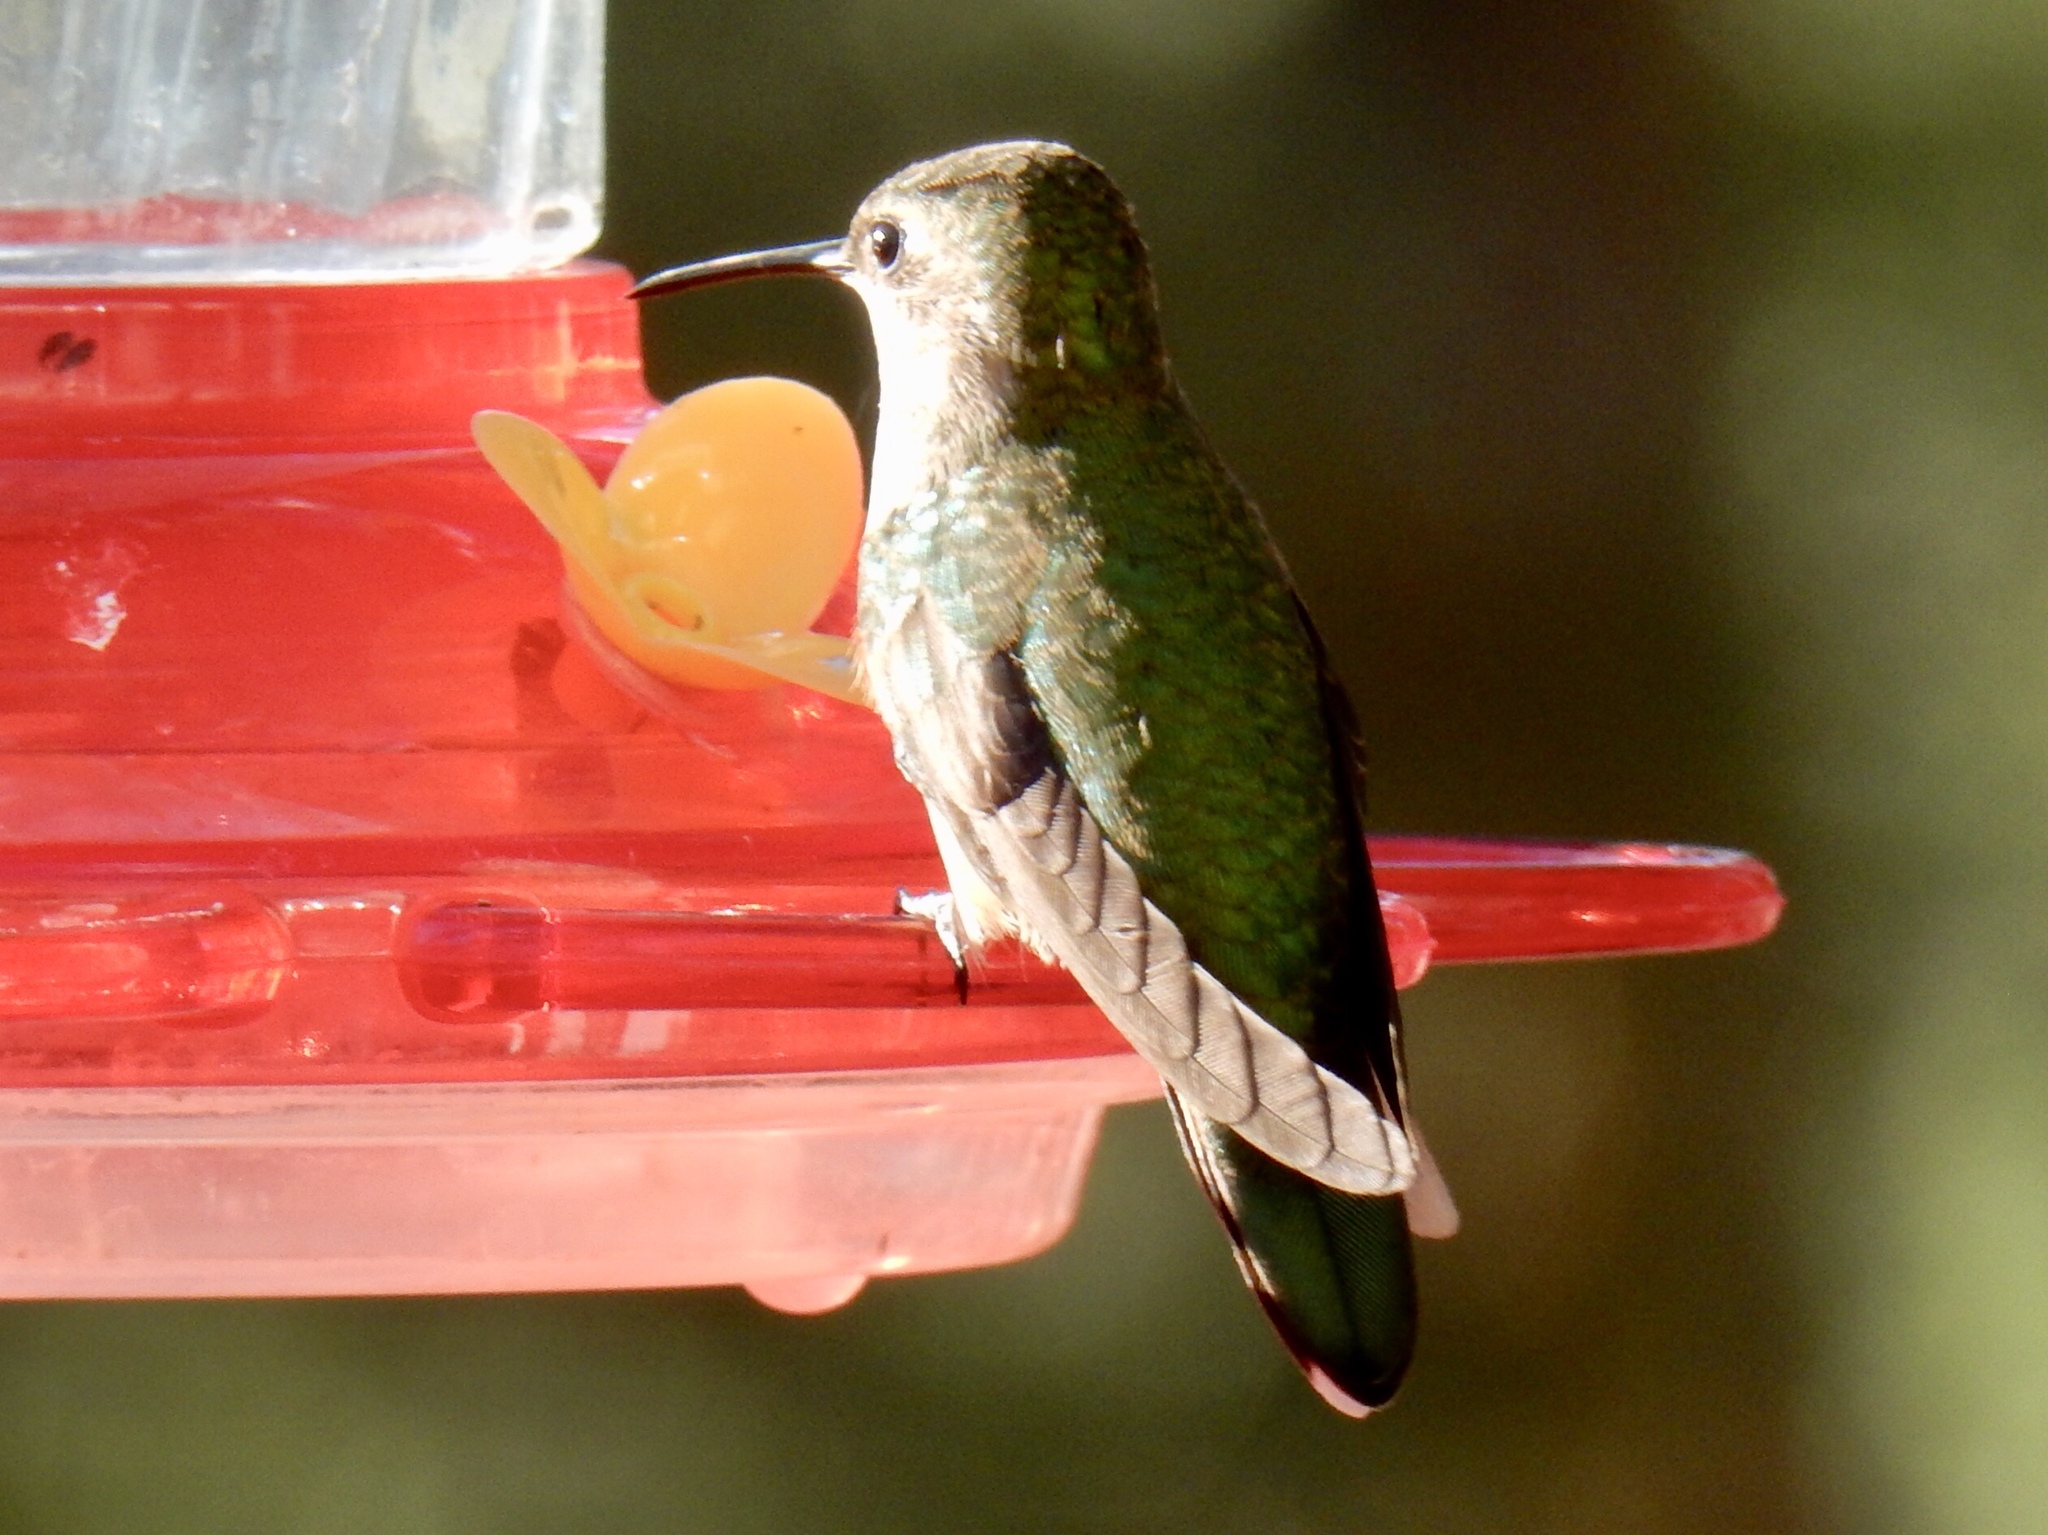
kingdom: Animalia
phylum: Chordata
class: Aves
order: Apodiformes
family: Trochilidae
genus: Selasphorus
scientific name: Selasphorus platycercus
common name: Broad-tailed hummingbird
